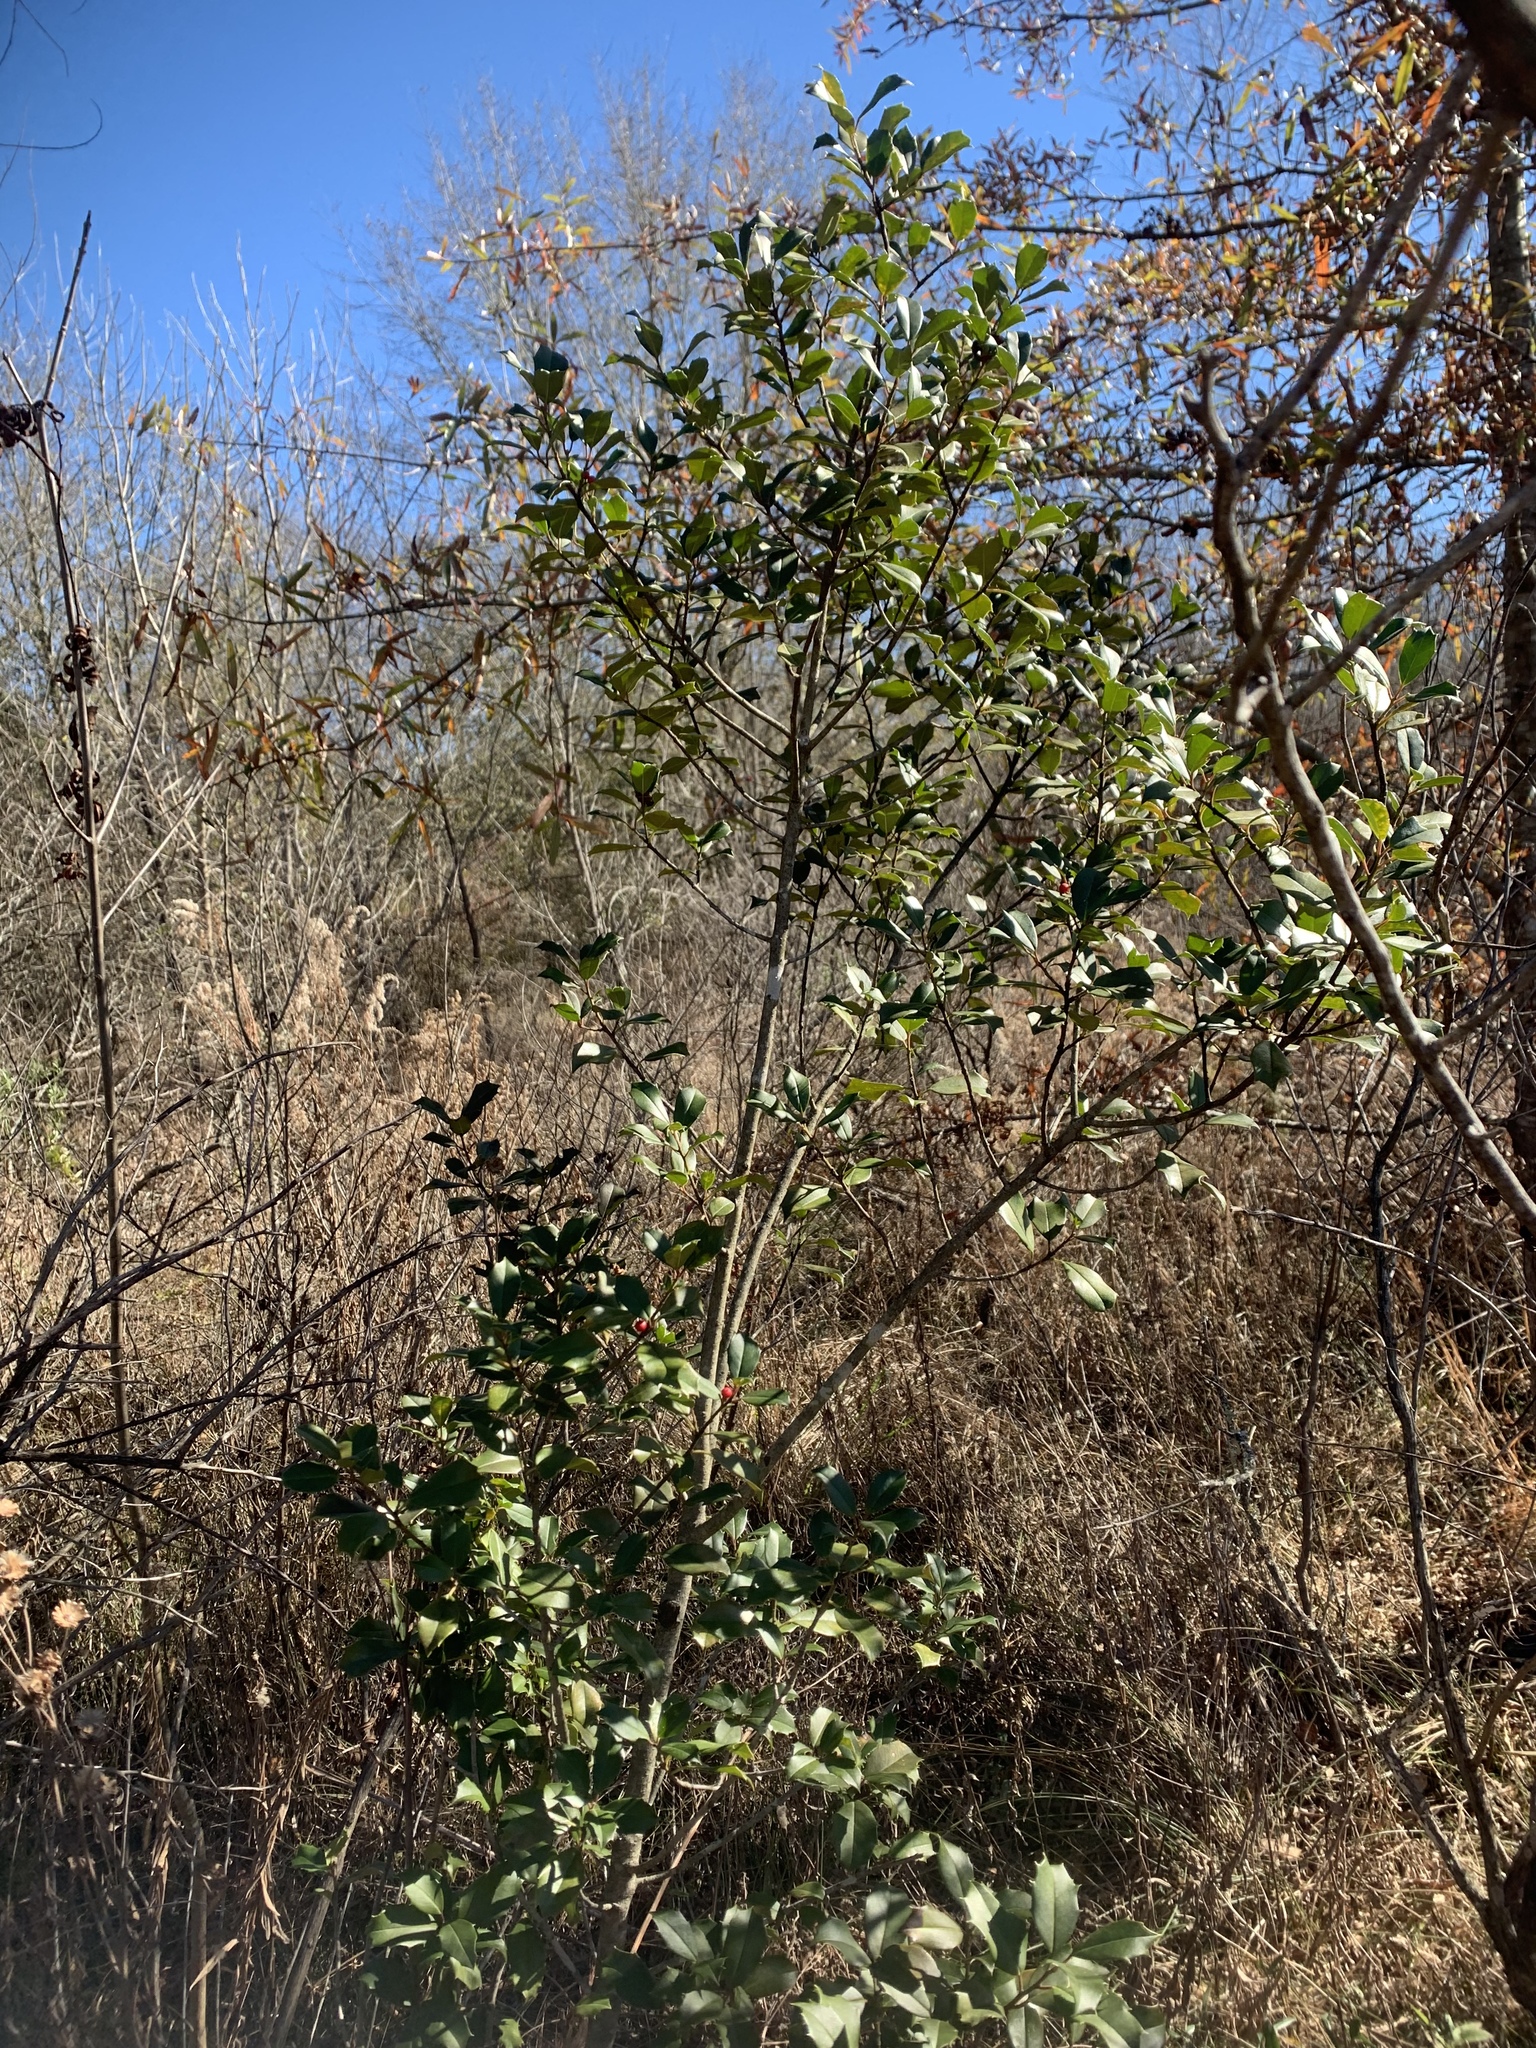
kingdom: Plantae
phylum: Tracheophyta
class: Magnoliopsida
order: Aquifoliales
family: Aquifoliaceae
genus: Ilex
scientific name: Ilex opaca
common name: American holly
